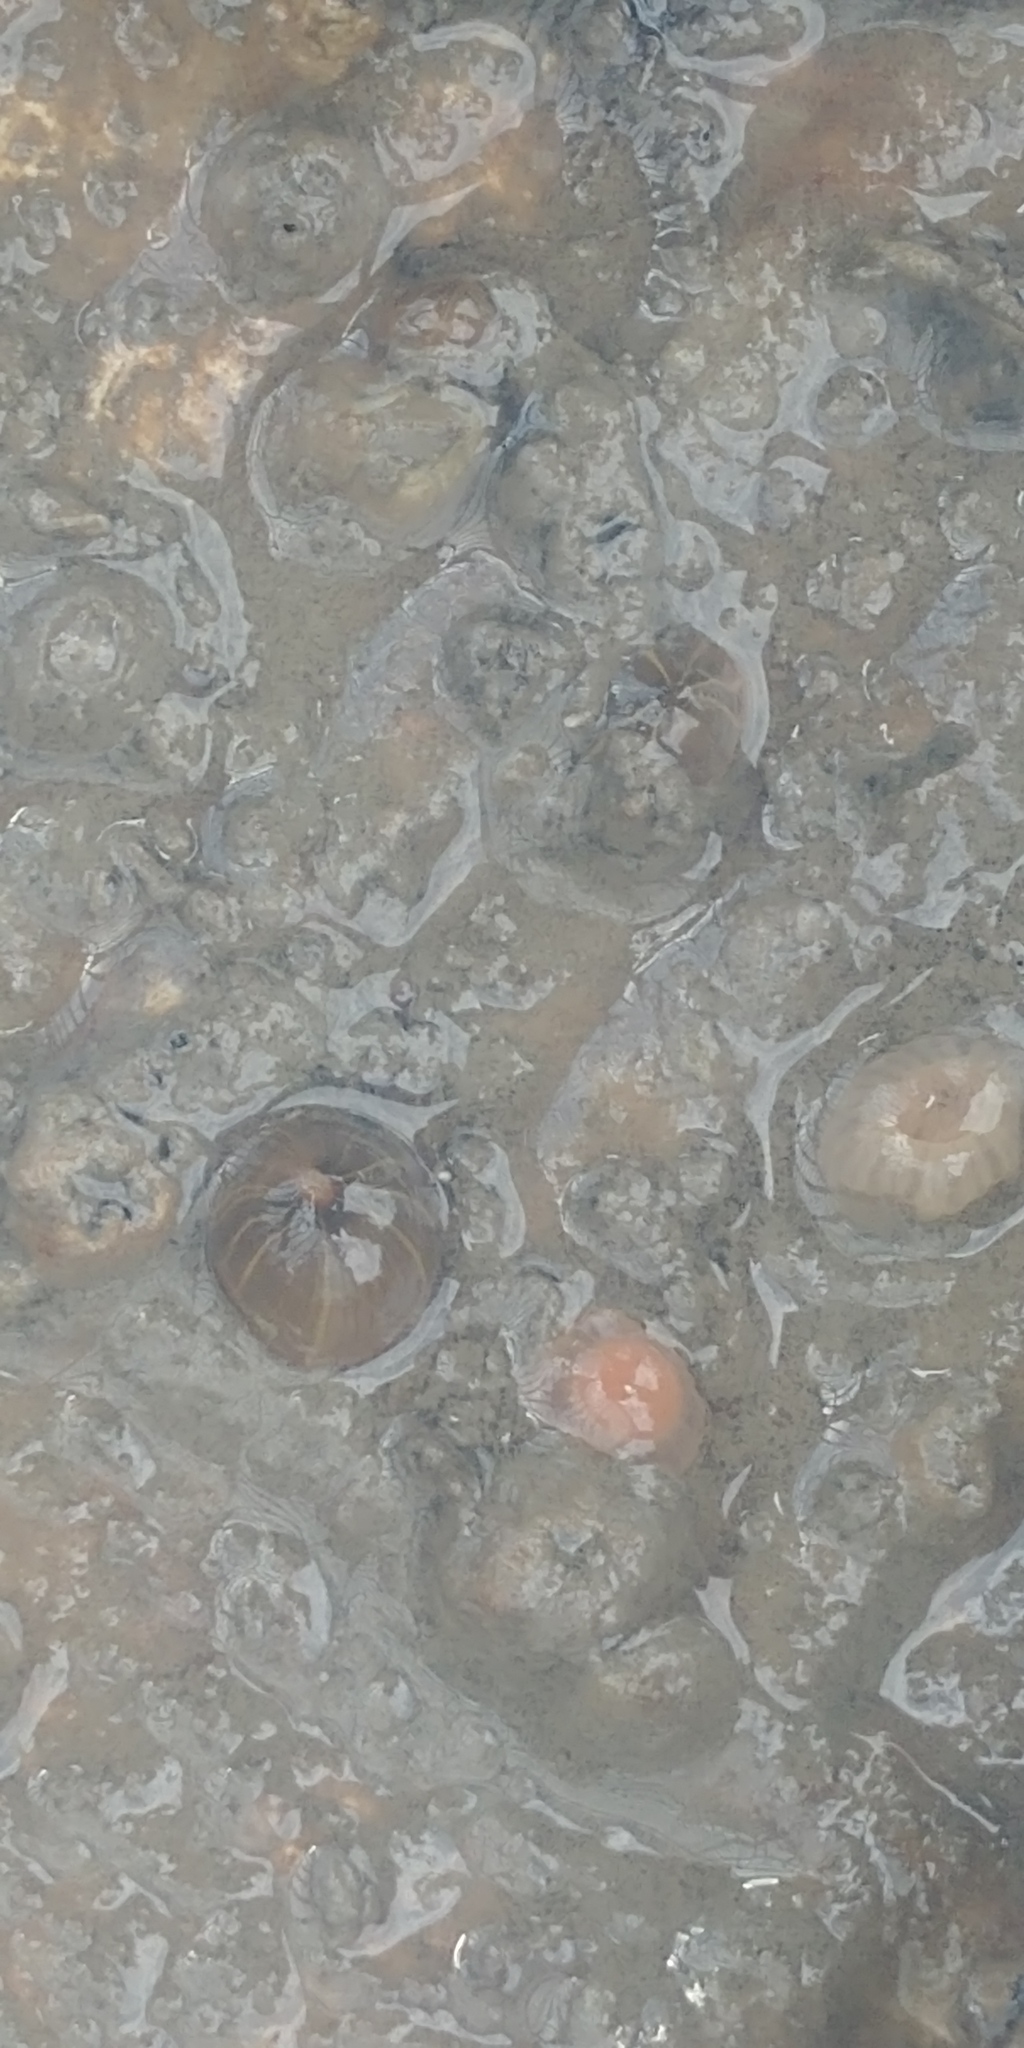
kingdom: Animalia
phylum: Cnidaria
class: Anthozoa
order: Actiniaria
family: Diadumenidae
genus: Diadumene
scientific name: Diadumene lineata
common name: Orange-striped anemone
